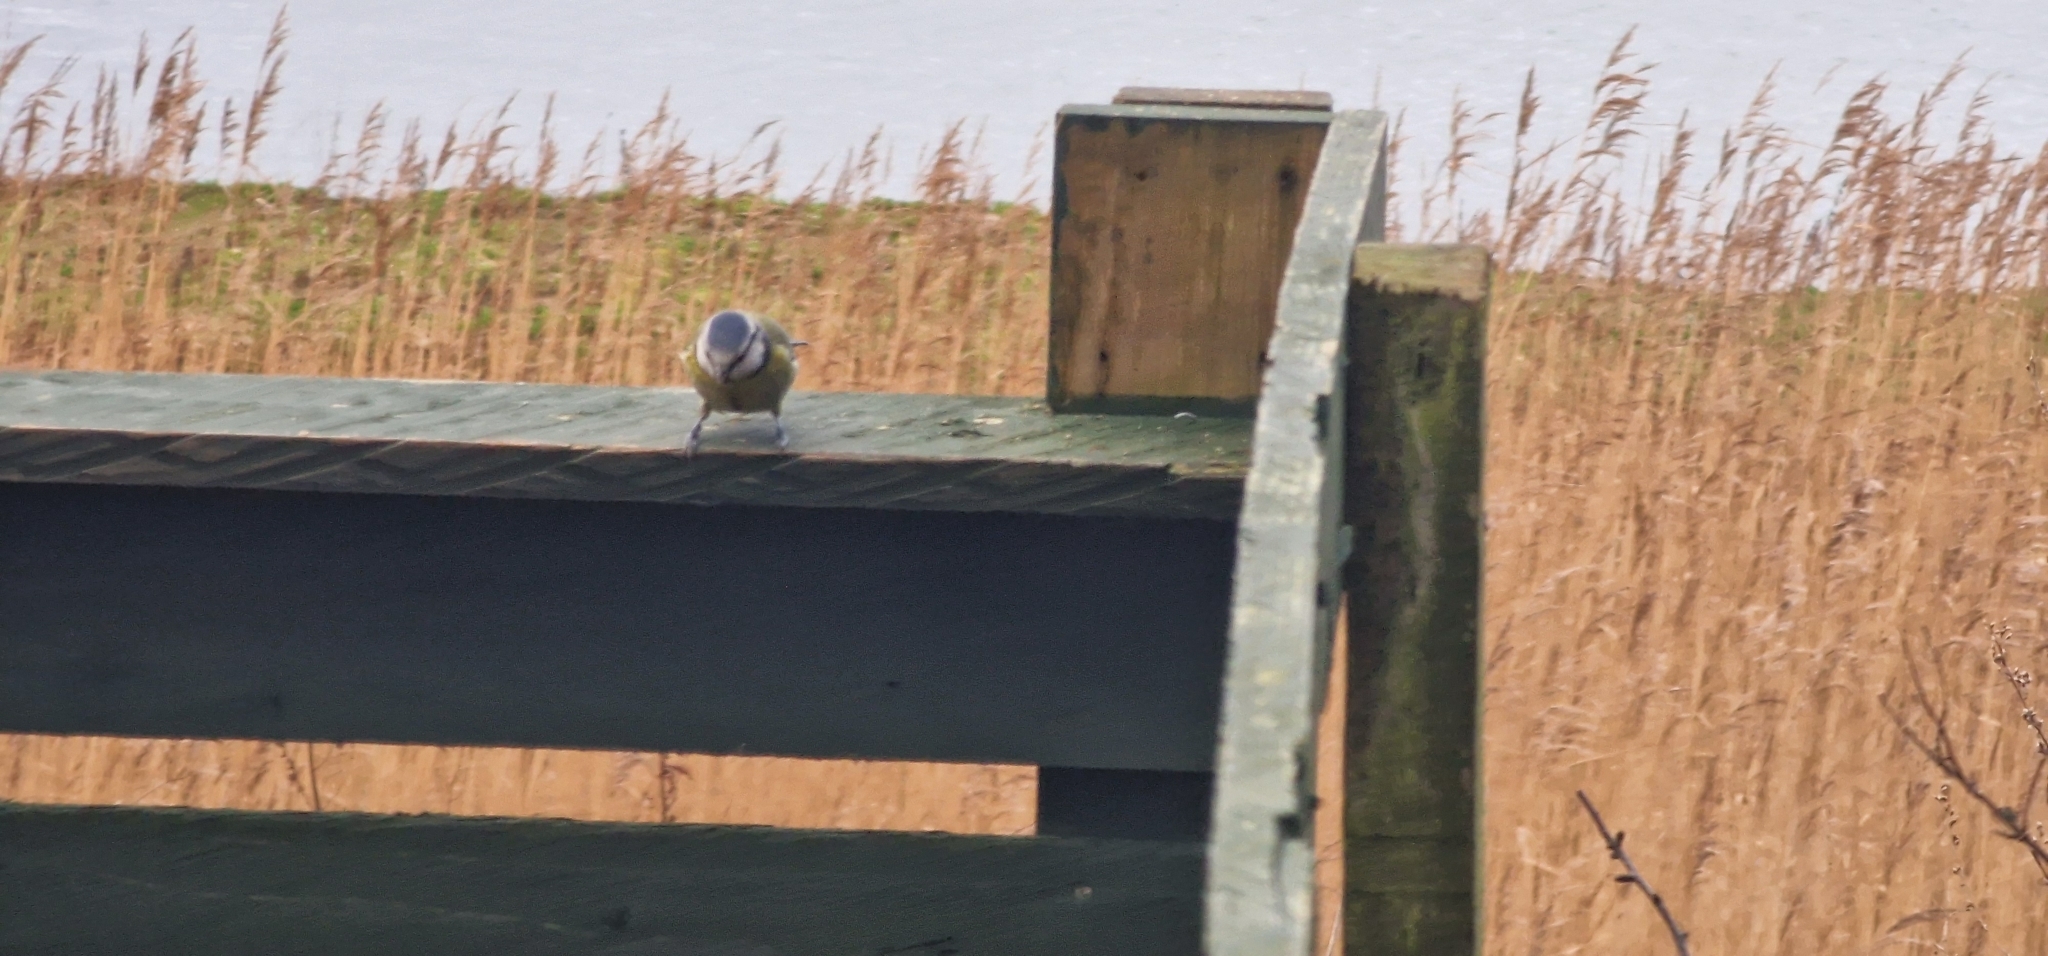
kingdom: Animalia
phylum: Chordata
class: Aves
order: Passeriformes
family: Paridae
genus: Cyanistes
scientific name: Cyanistes caeruleus
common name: Eurasian blue tit
